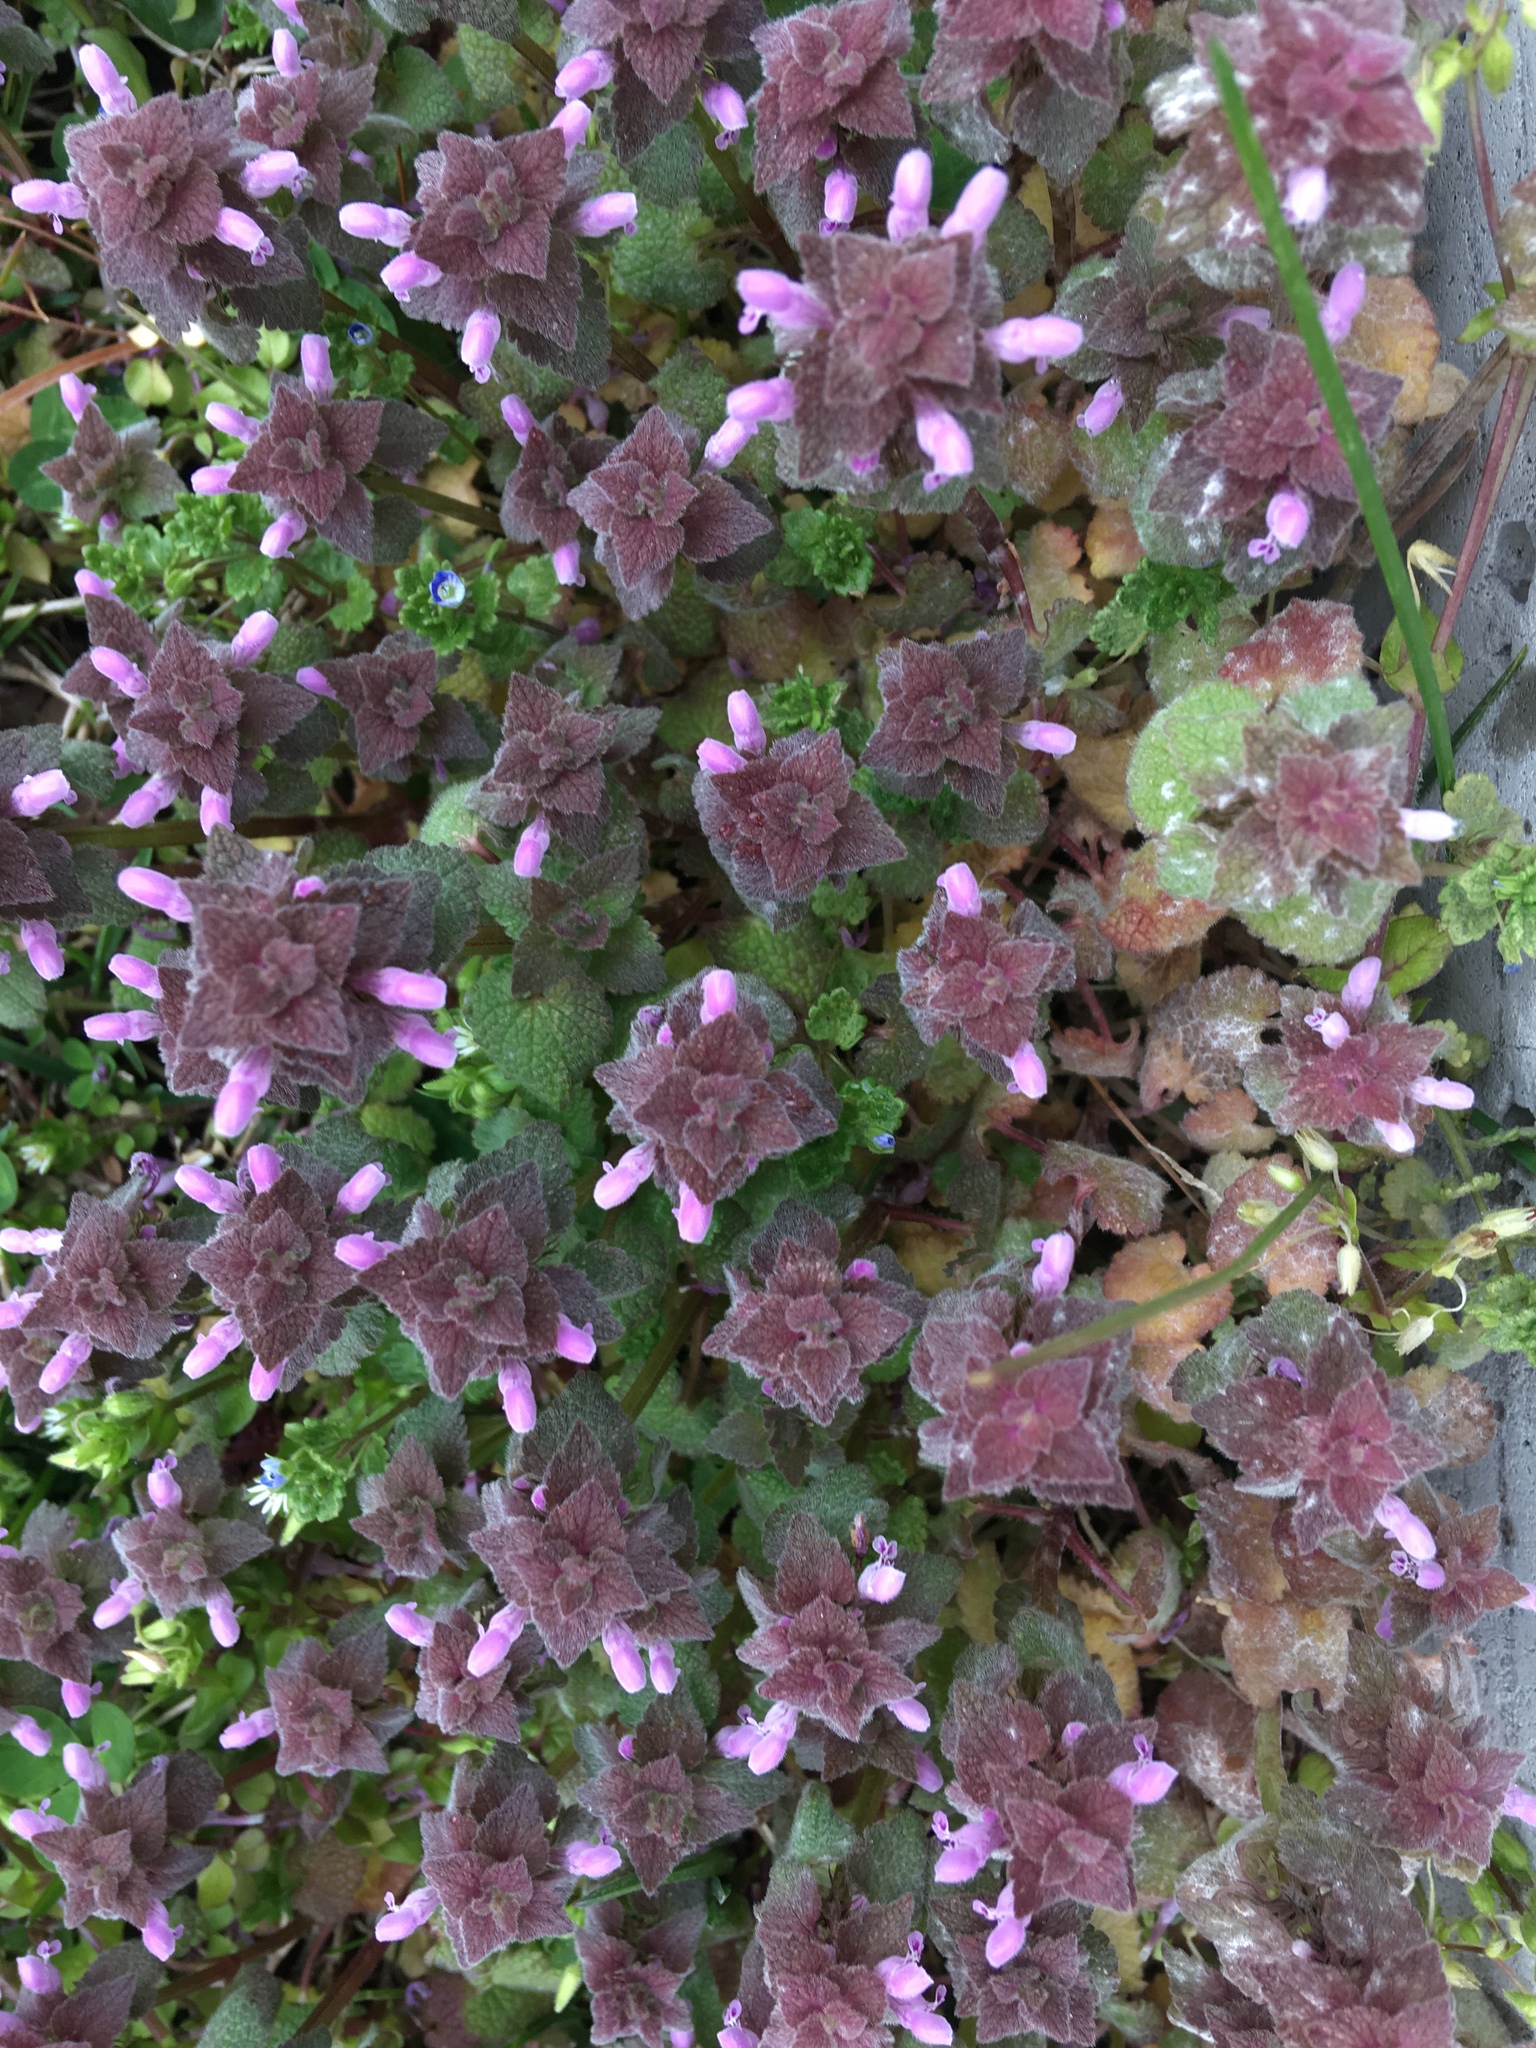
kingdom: Plantae
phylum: Tracheophyta
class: Magnoliopsida
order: Lamiales
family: Lamiaceae
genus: Lamium
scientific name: Lamium purpureum
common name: Red dead-nettle
